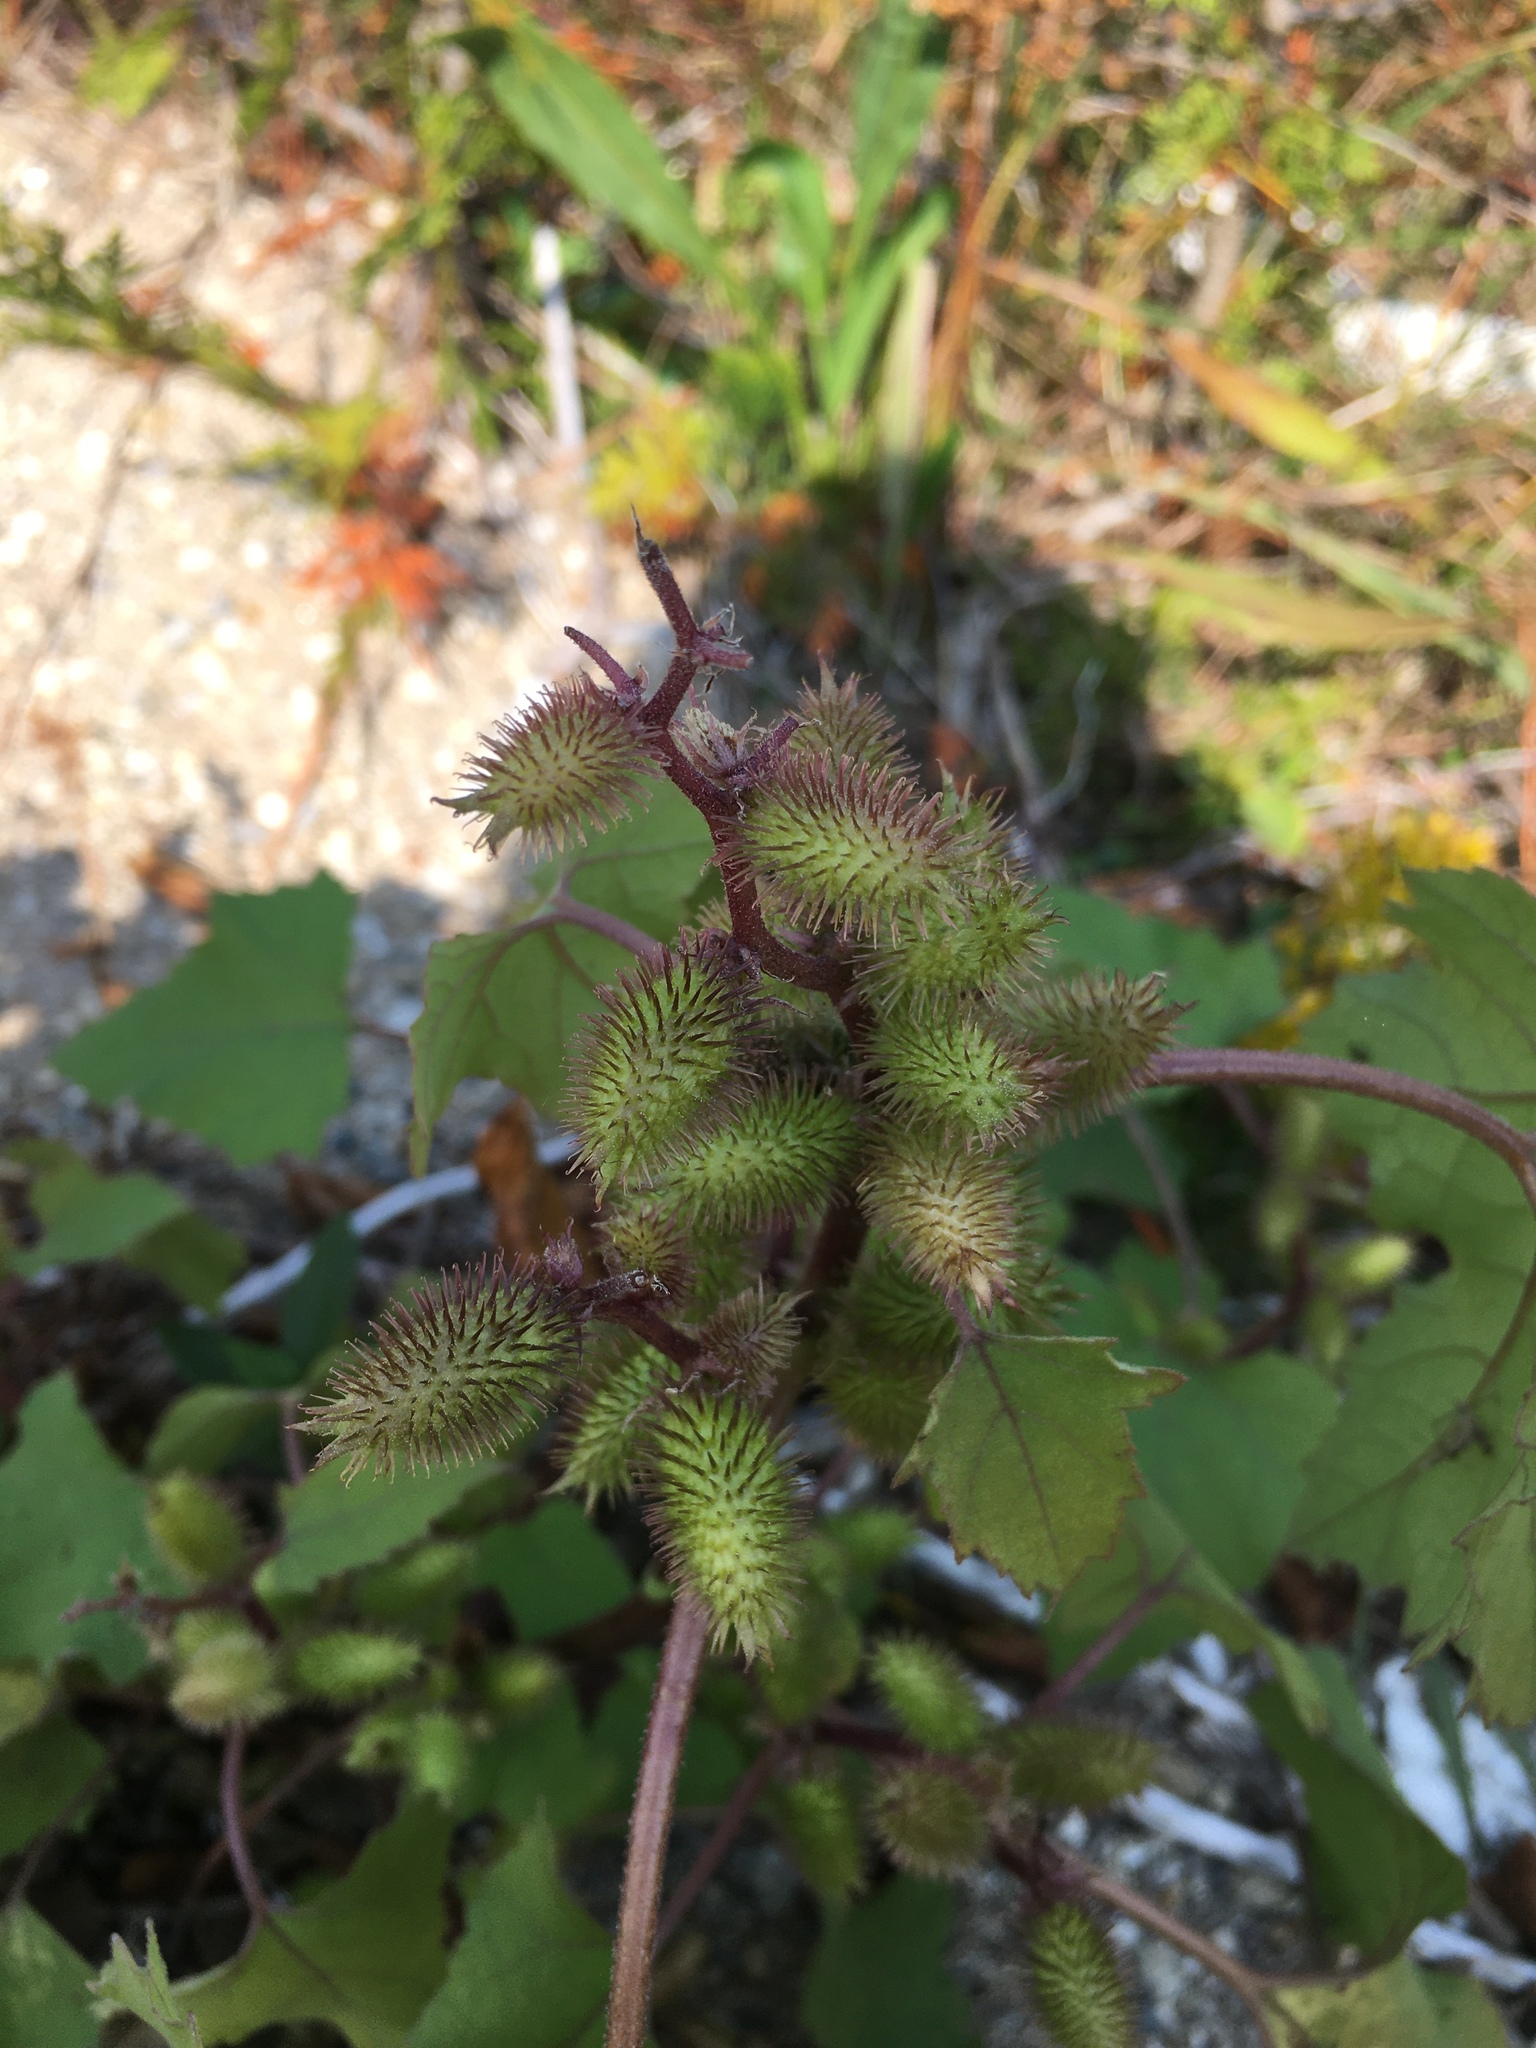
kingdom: Plantae
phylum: Tracheophyta
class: Magnoliopsida
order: Asterales
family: Asteraceae
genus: Xanthium
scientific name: Xanthium strumarium
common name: Rough cocklebur
